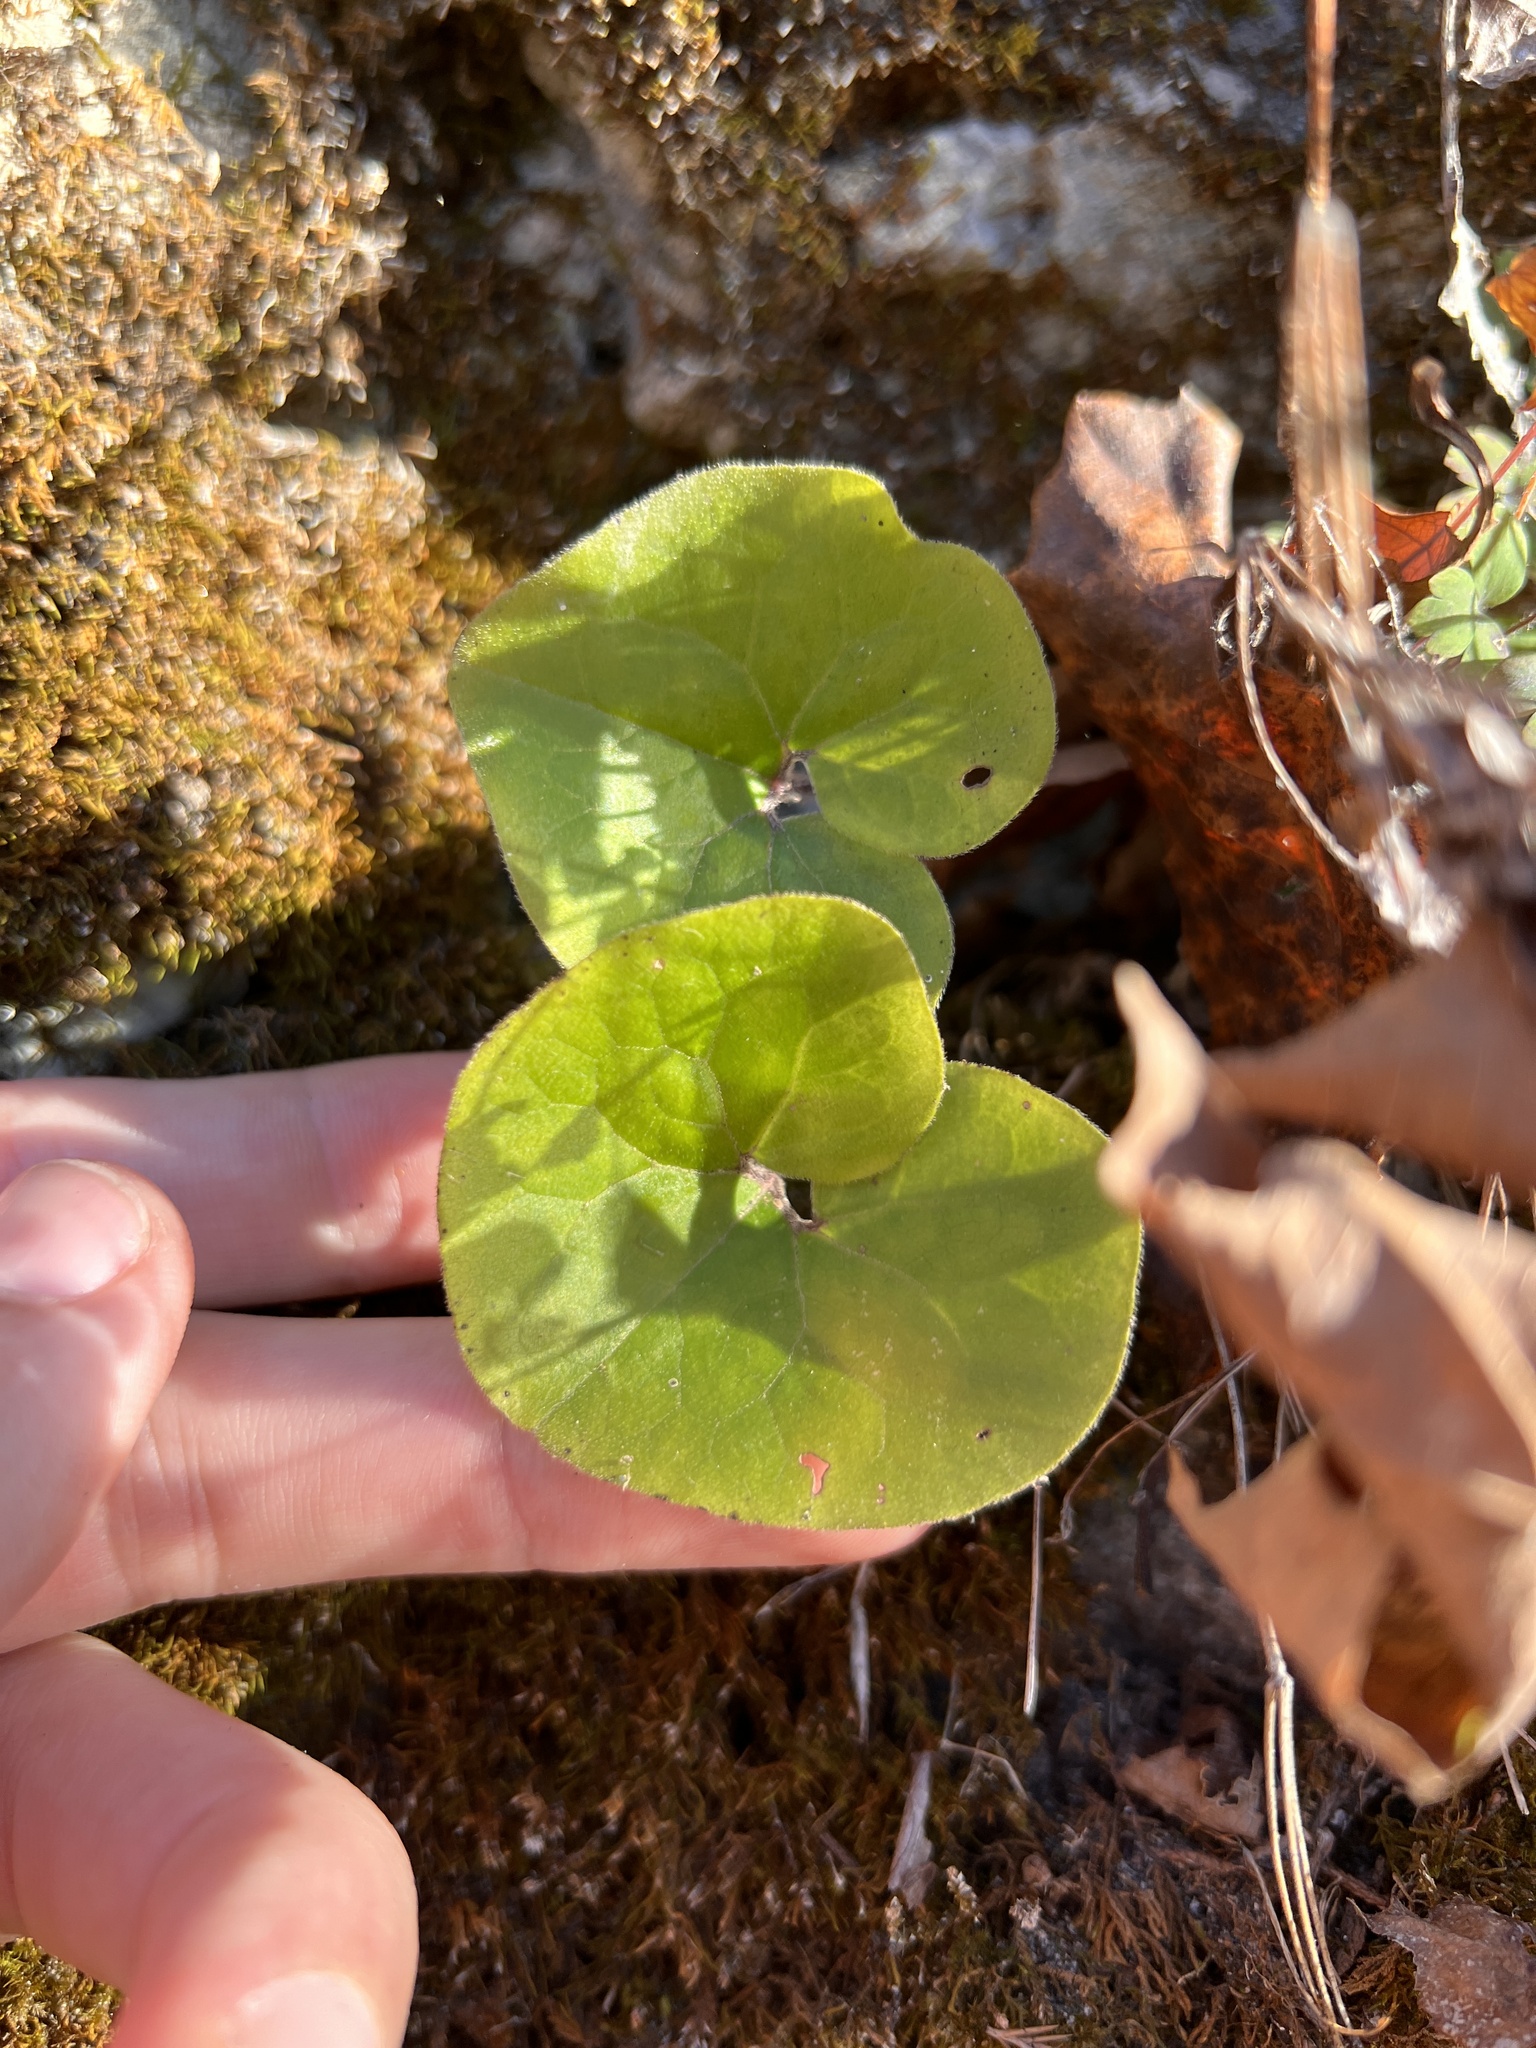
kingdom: Plantae
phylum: Tracheophyta
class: Magnoliopsida
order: Piperales
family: Aristolochiaceae
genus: Asarum
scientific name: Asarum canadense
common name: Wild ginger
